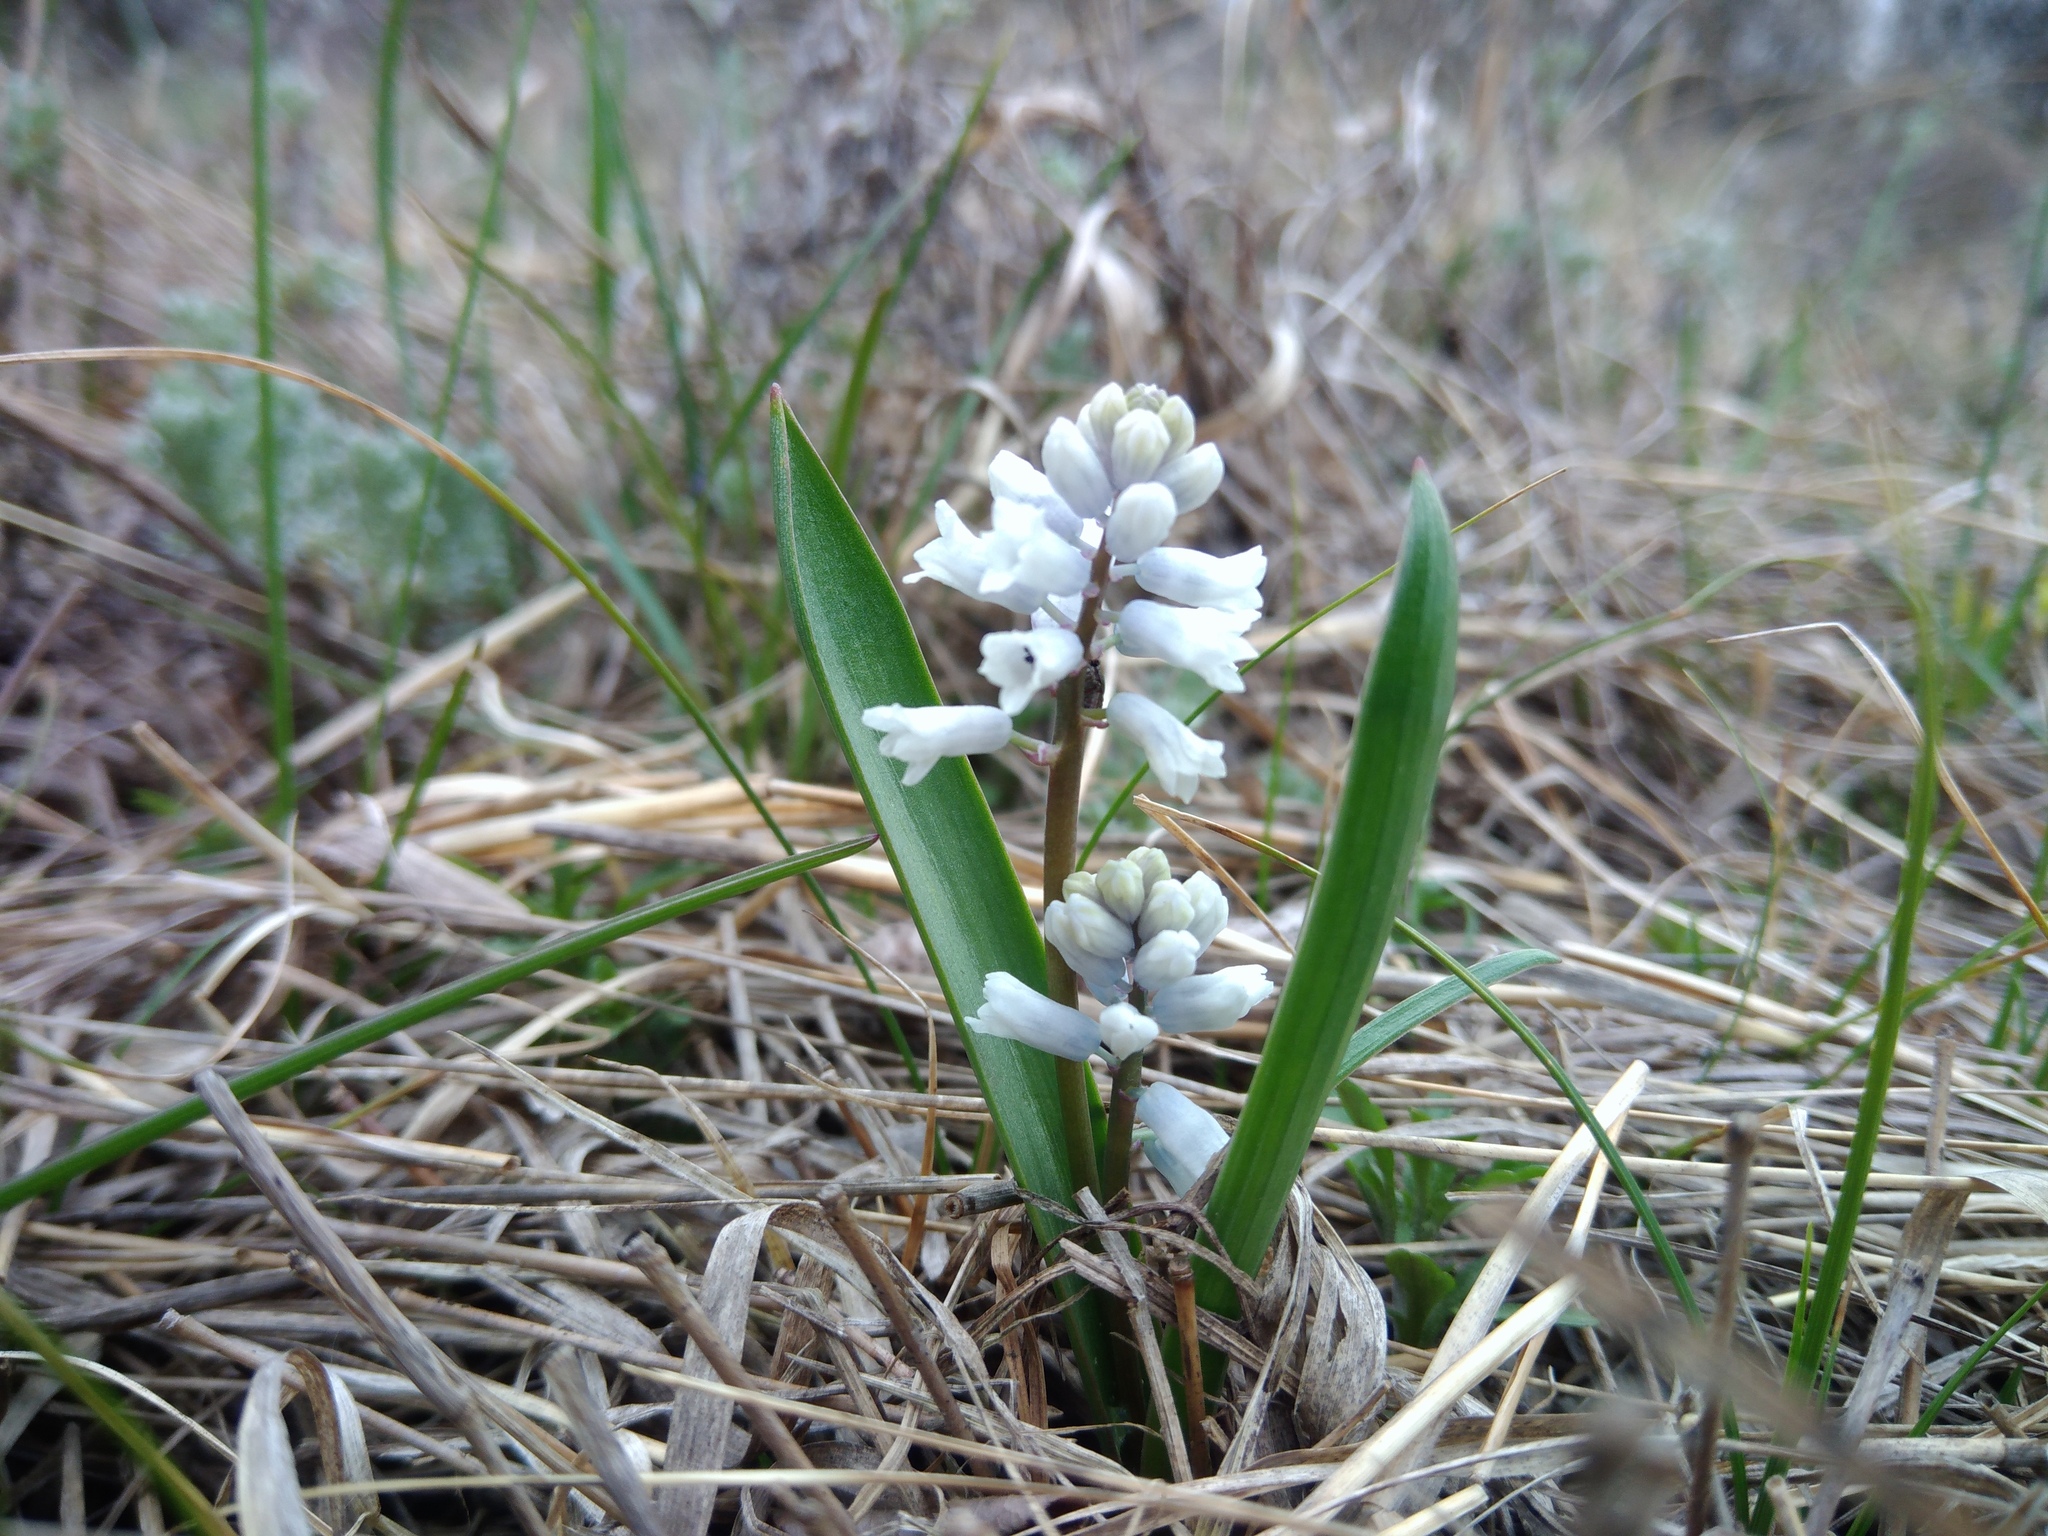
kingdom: Plantae
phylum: Tracheophyta
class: Liliopsida
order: Asparagales
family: Asparagaceae
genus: Hyacinthella
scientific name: Hyacinthella leucophaea
